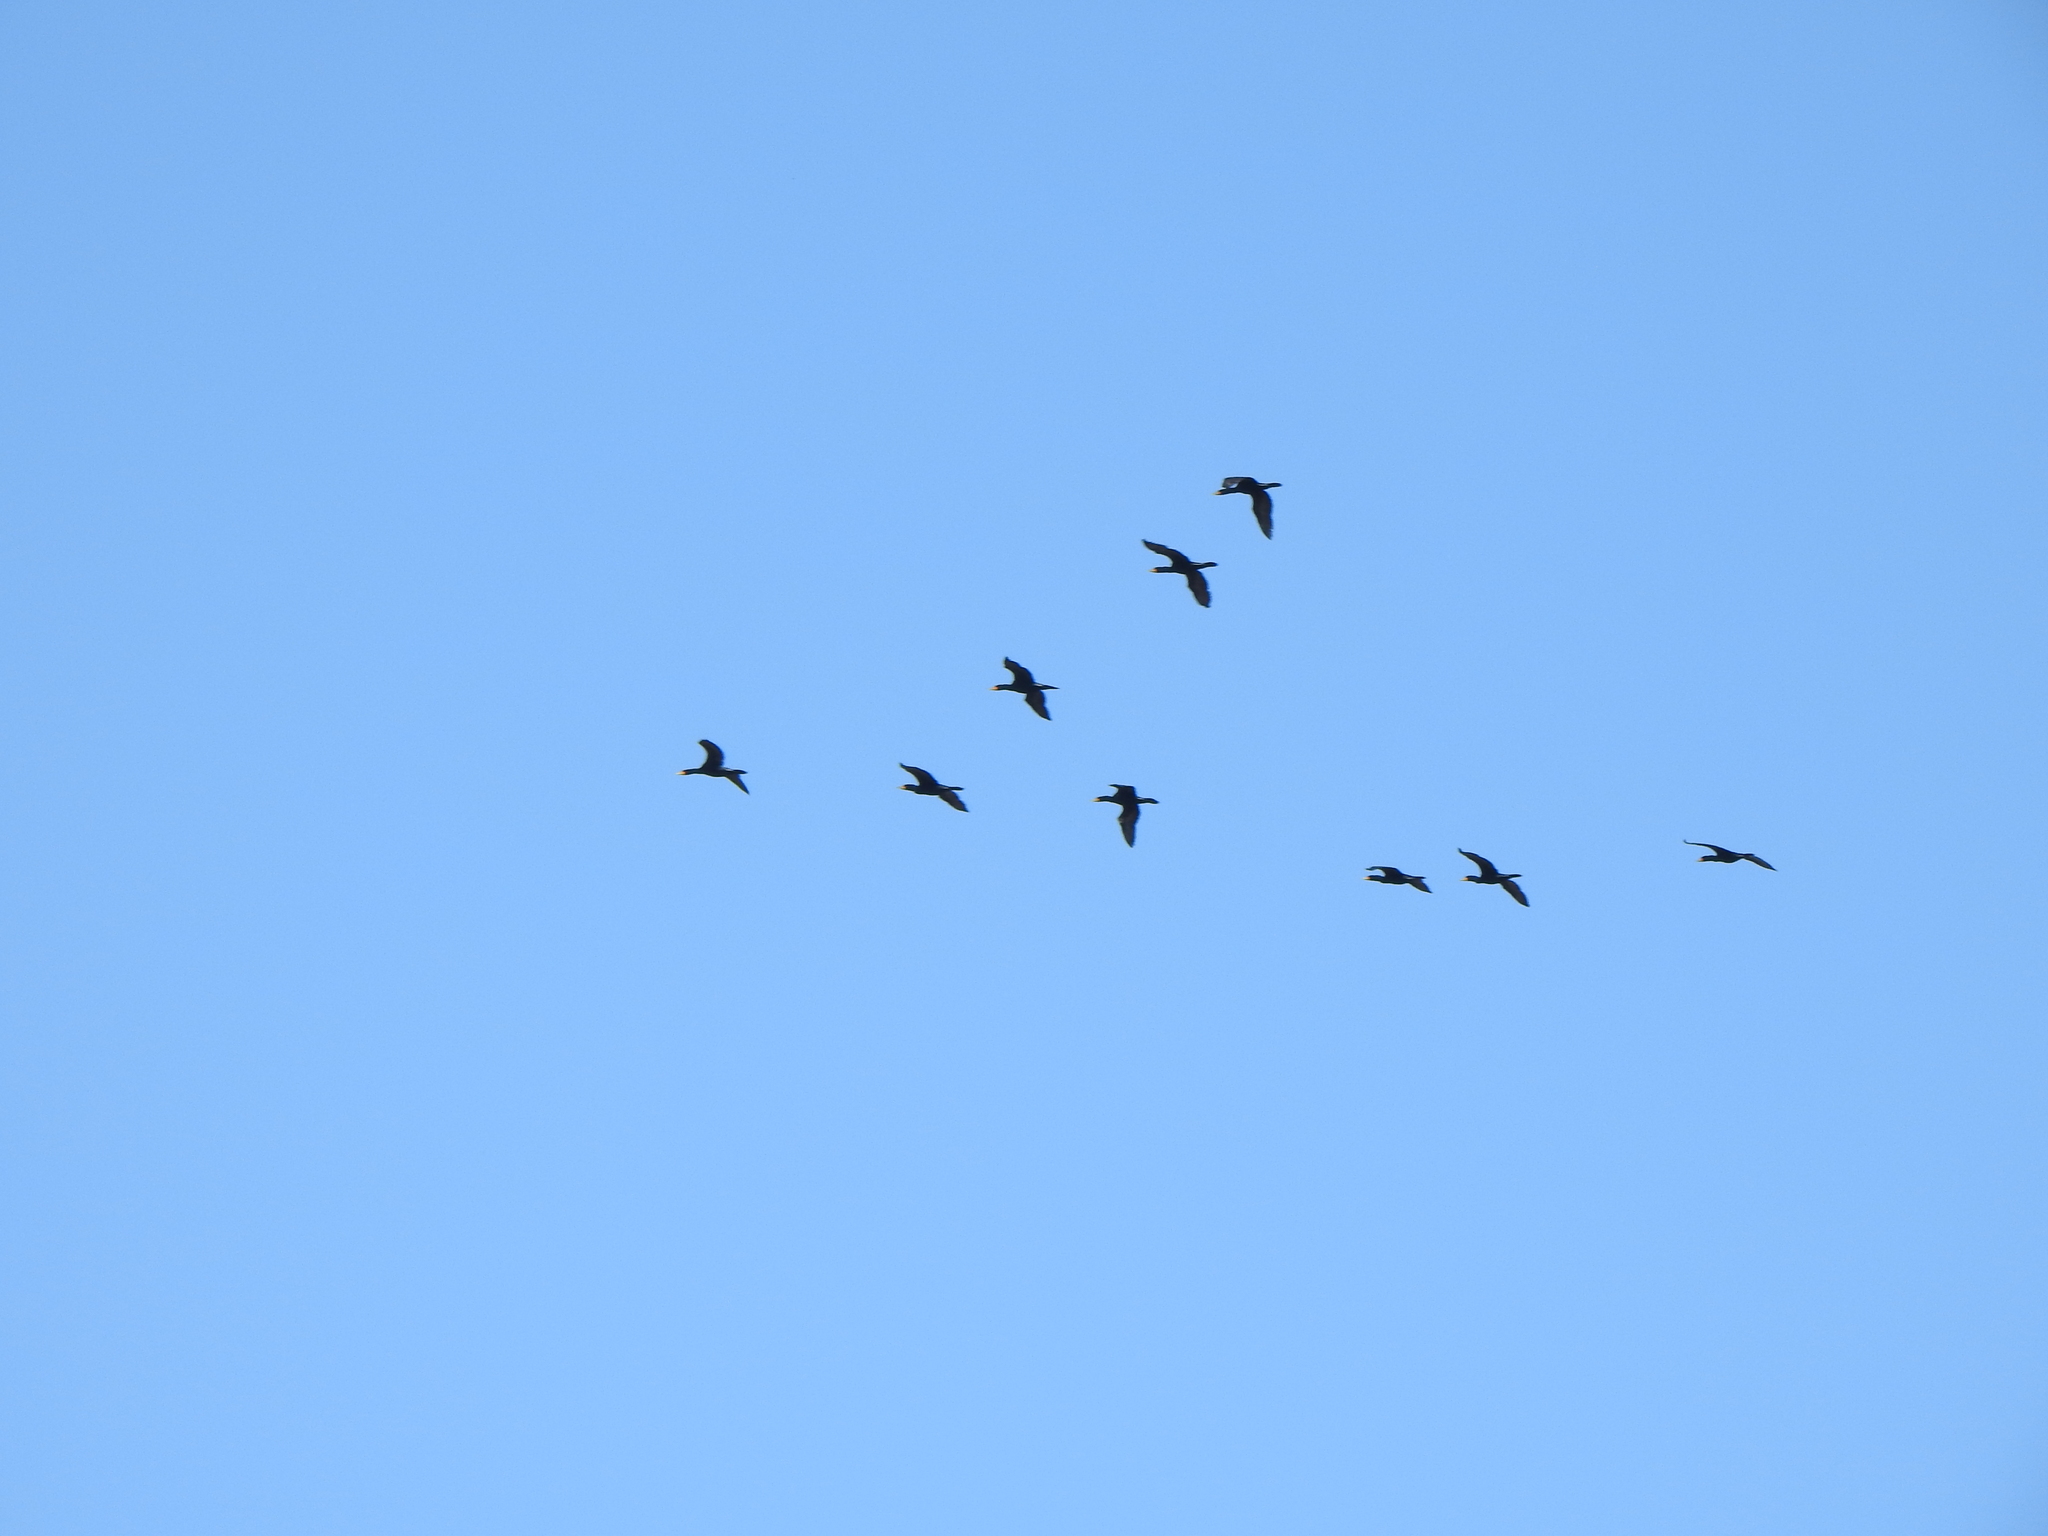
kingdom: Animalia
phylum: Chordata
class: Aves
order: Suliformes
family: Phalacrocoracidae
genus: Phalacrocorax
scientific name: Phalacrocorax auritus
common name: Double-crested cormorant
